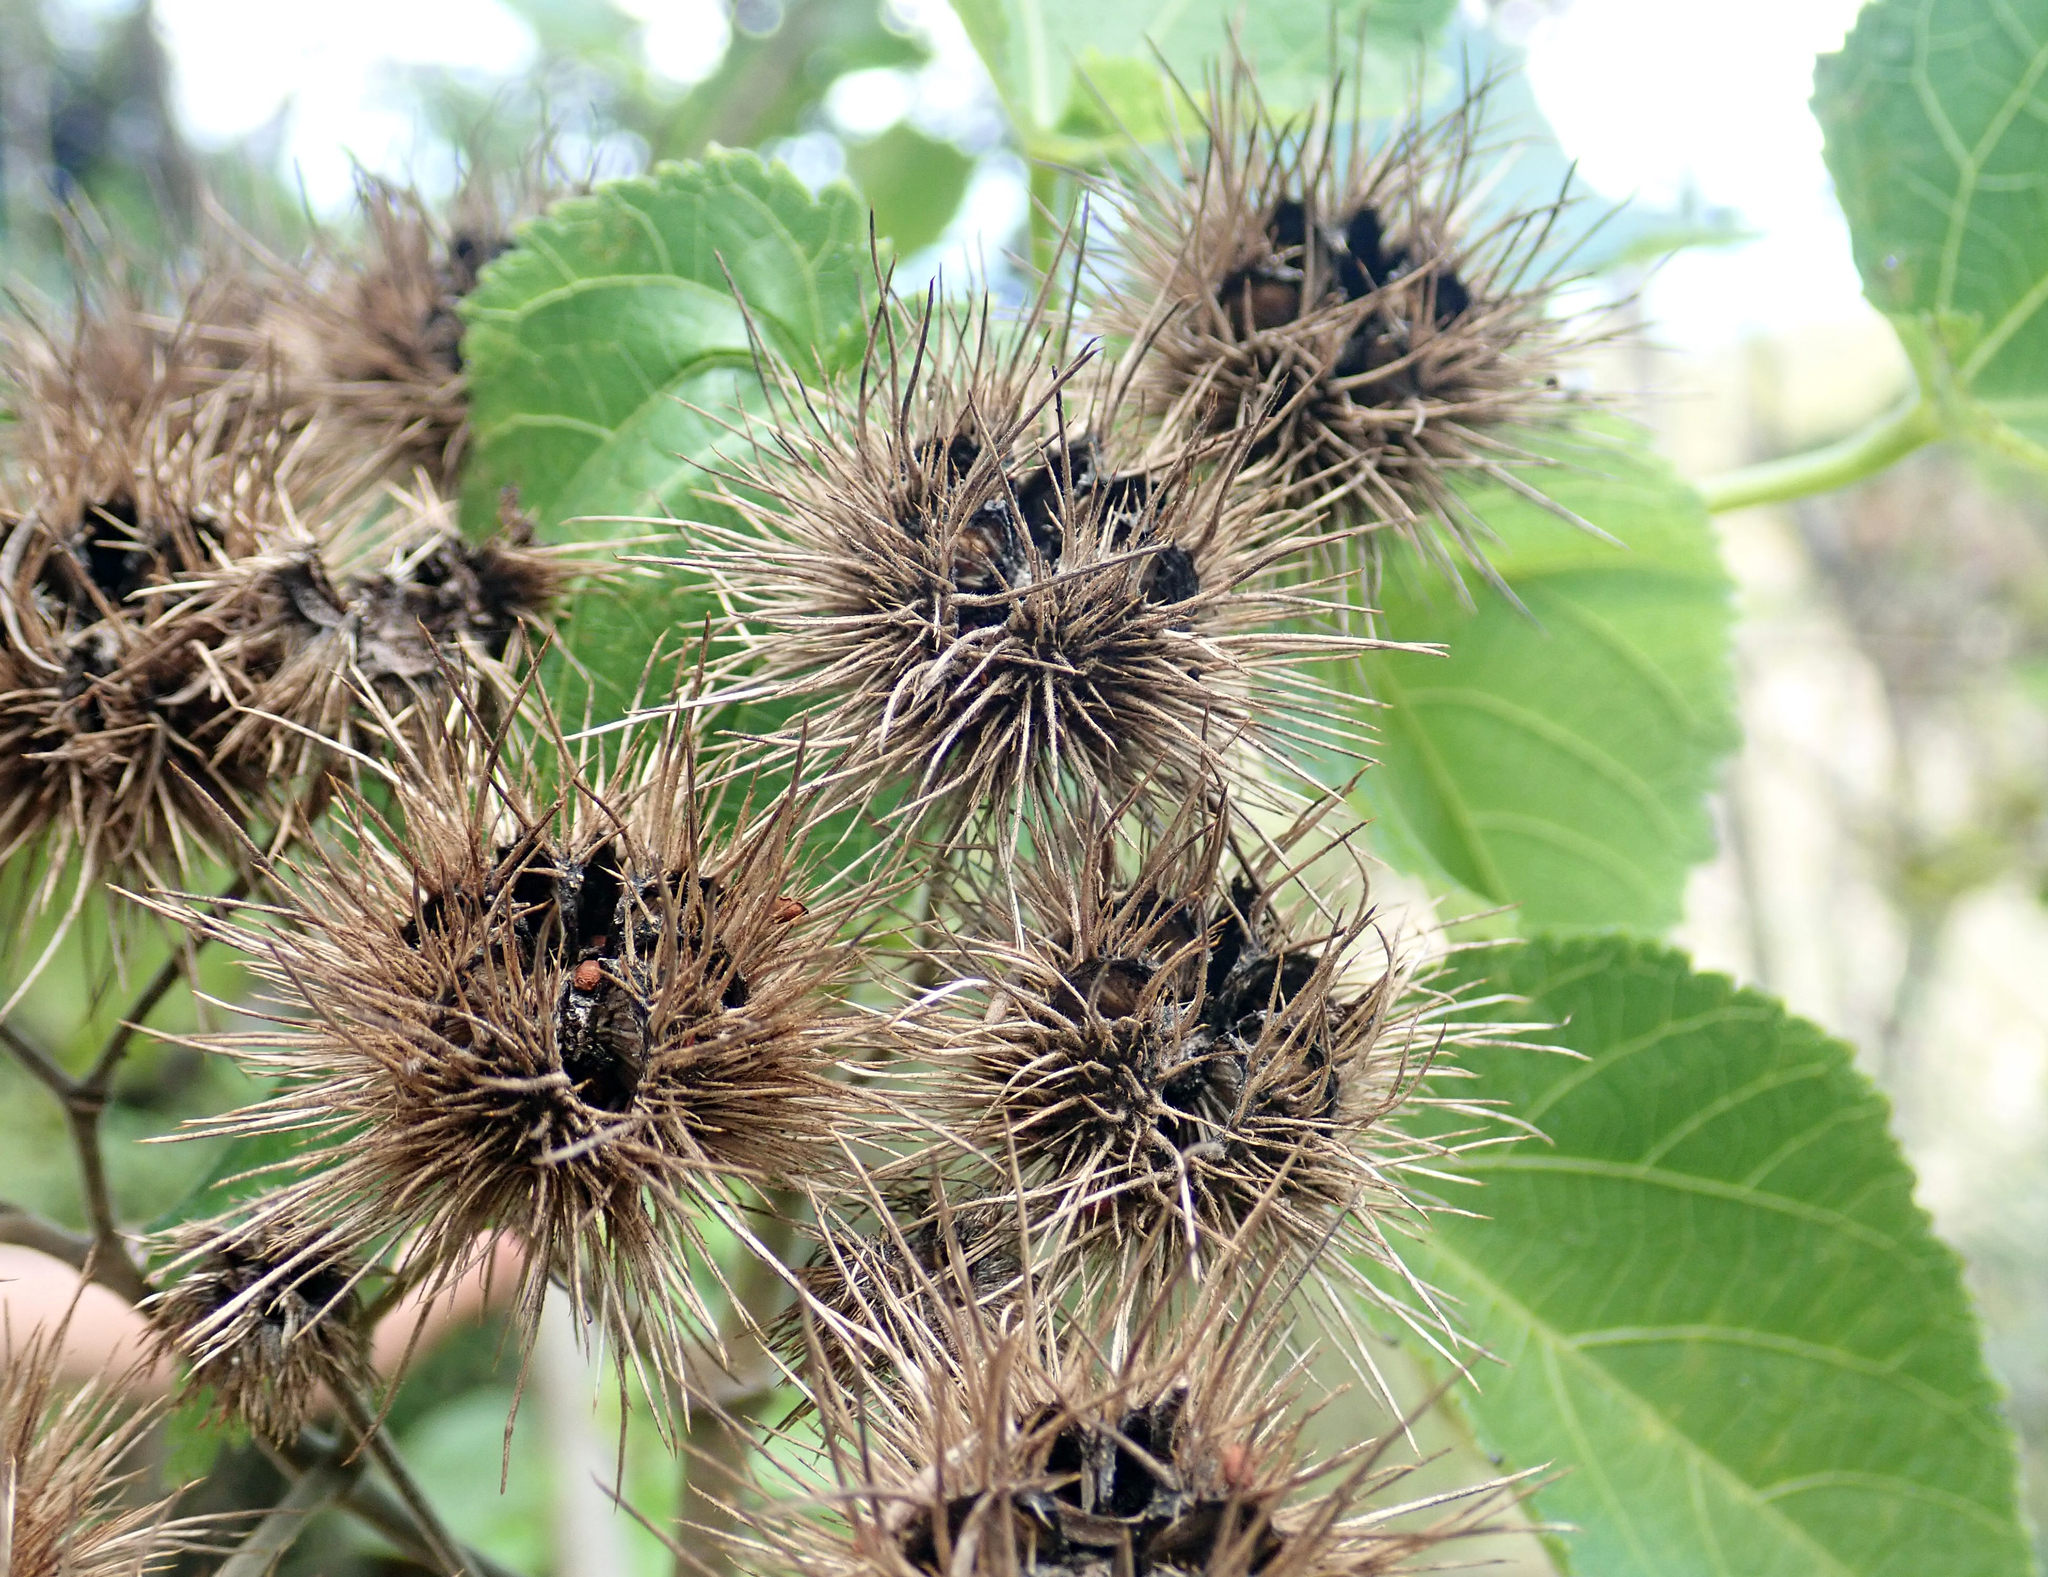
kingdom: Plantae
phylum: Tracheophyta
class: Magnoliopsida
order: Malvales
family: Malvaceae
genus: Entelea
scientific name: Entelea arborescens
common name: New zealand-mulberry
